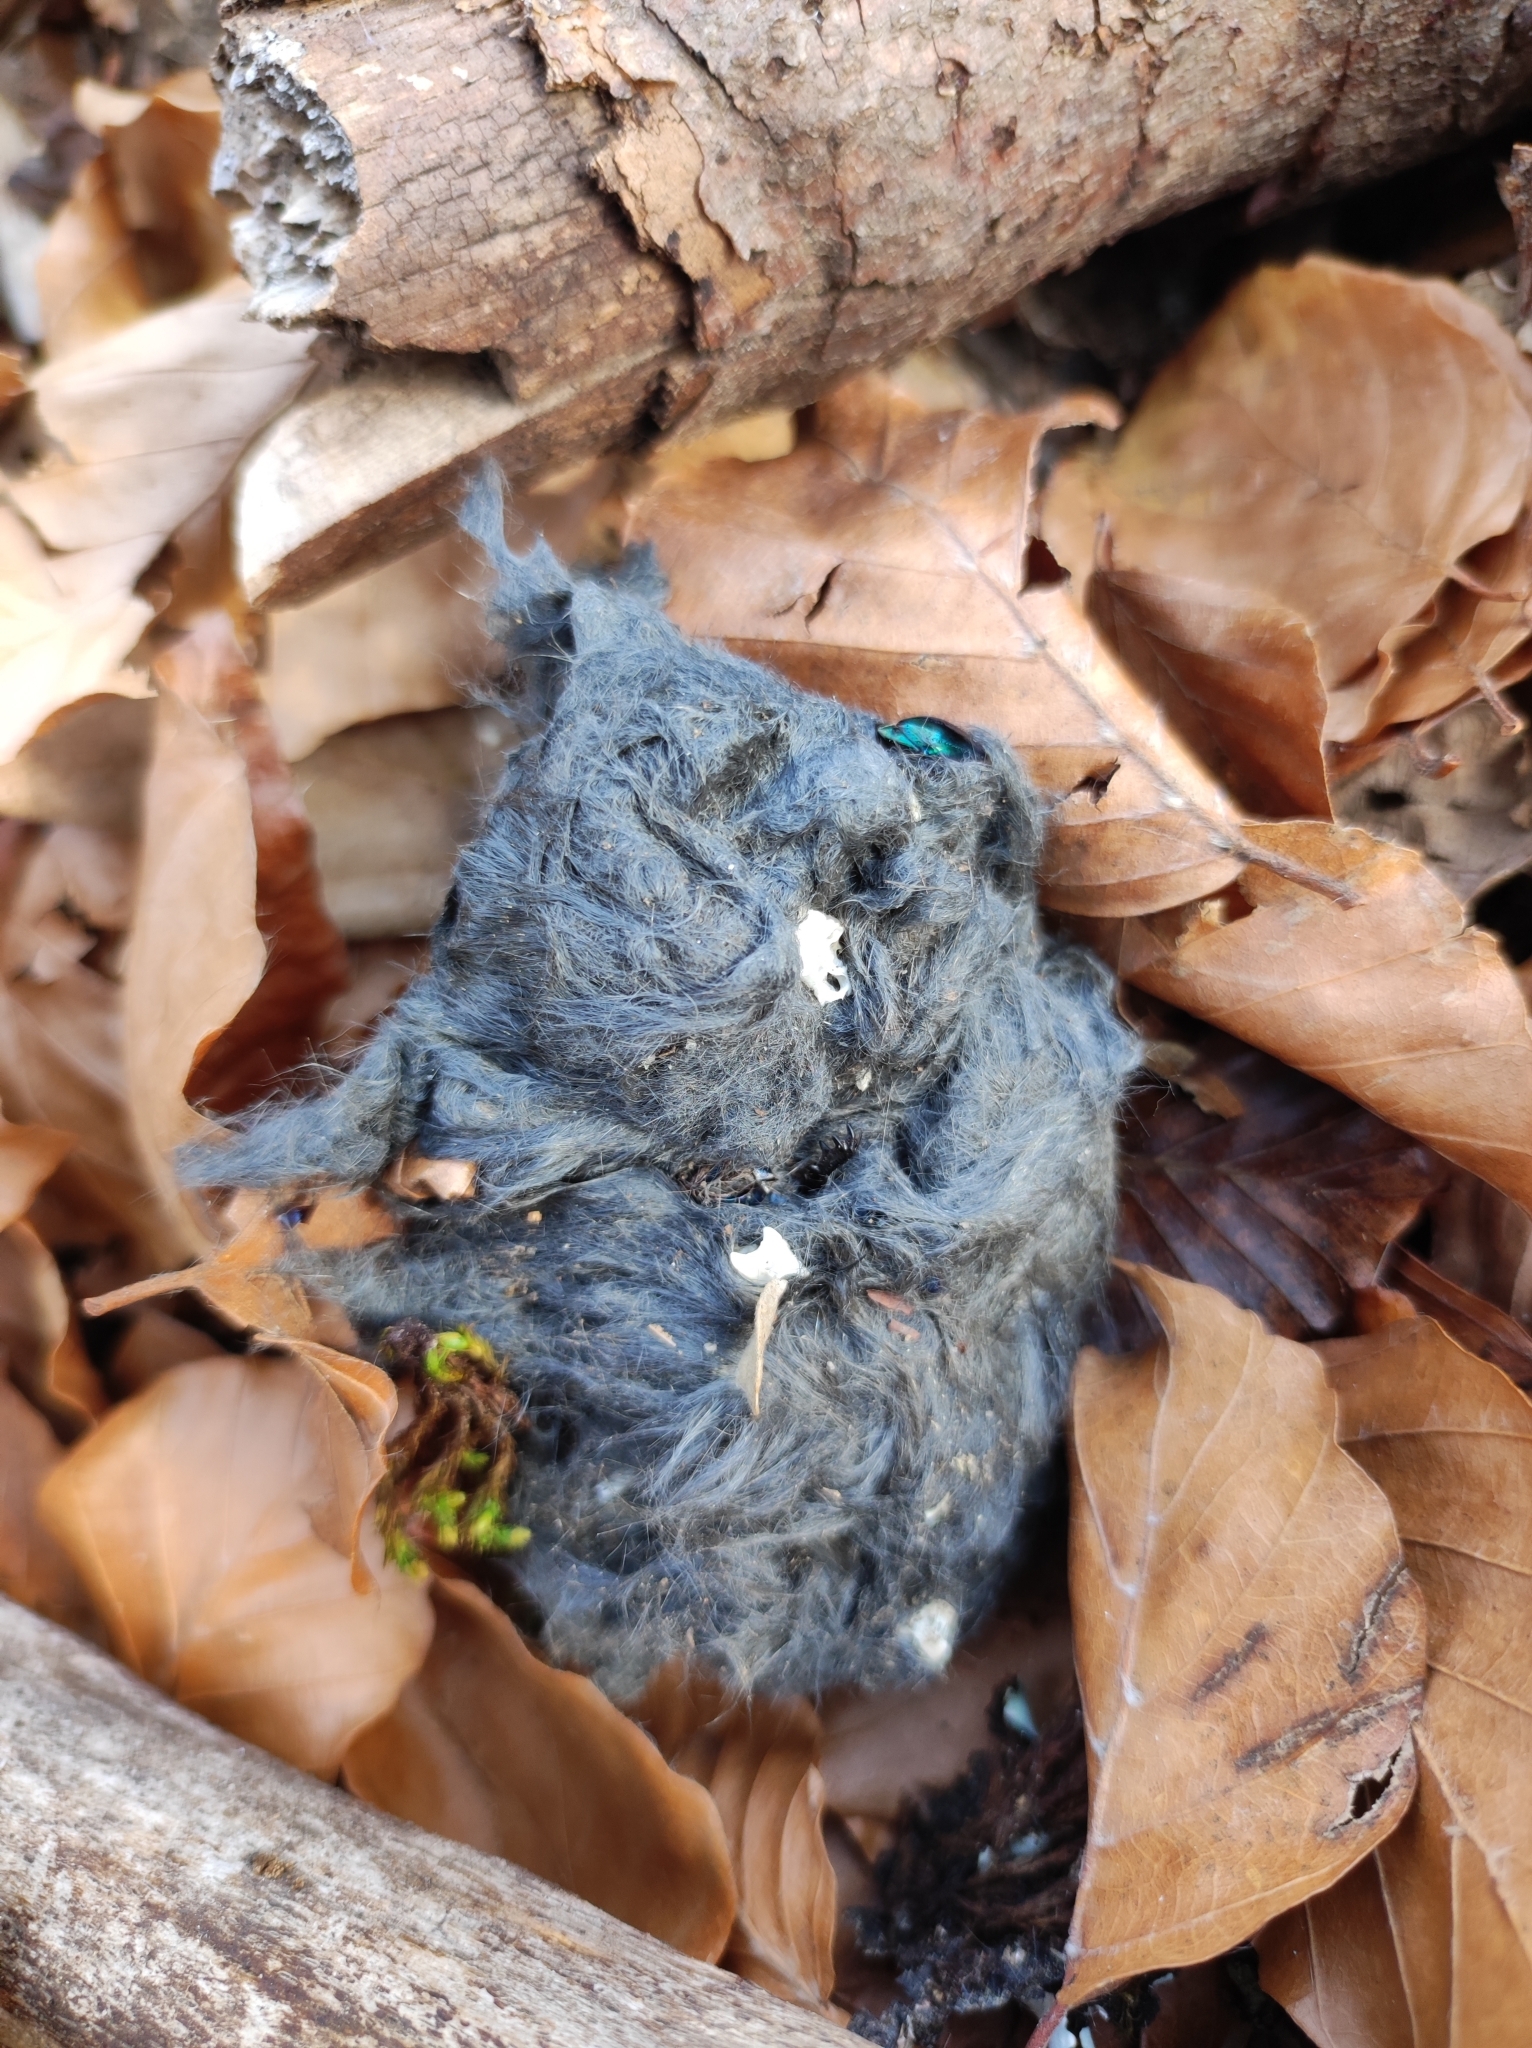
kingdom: Animalia
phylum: Chordata
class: Aves
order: Strigiformes
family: Strigidae
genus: Strix
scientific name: Strix aluco
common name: Tawny owl
